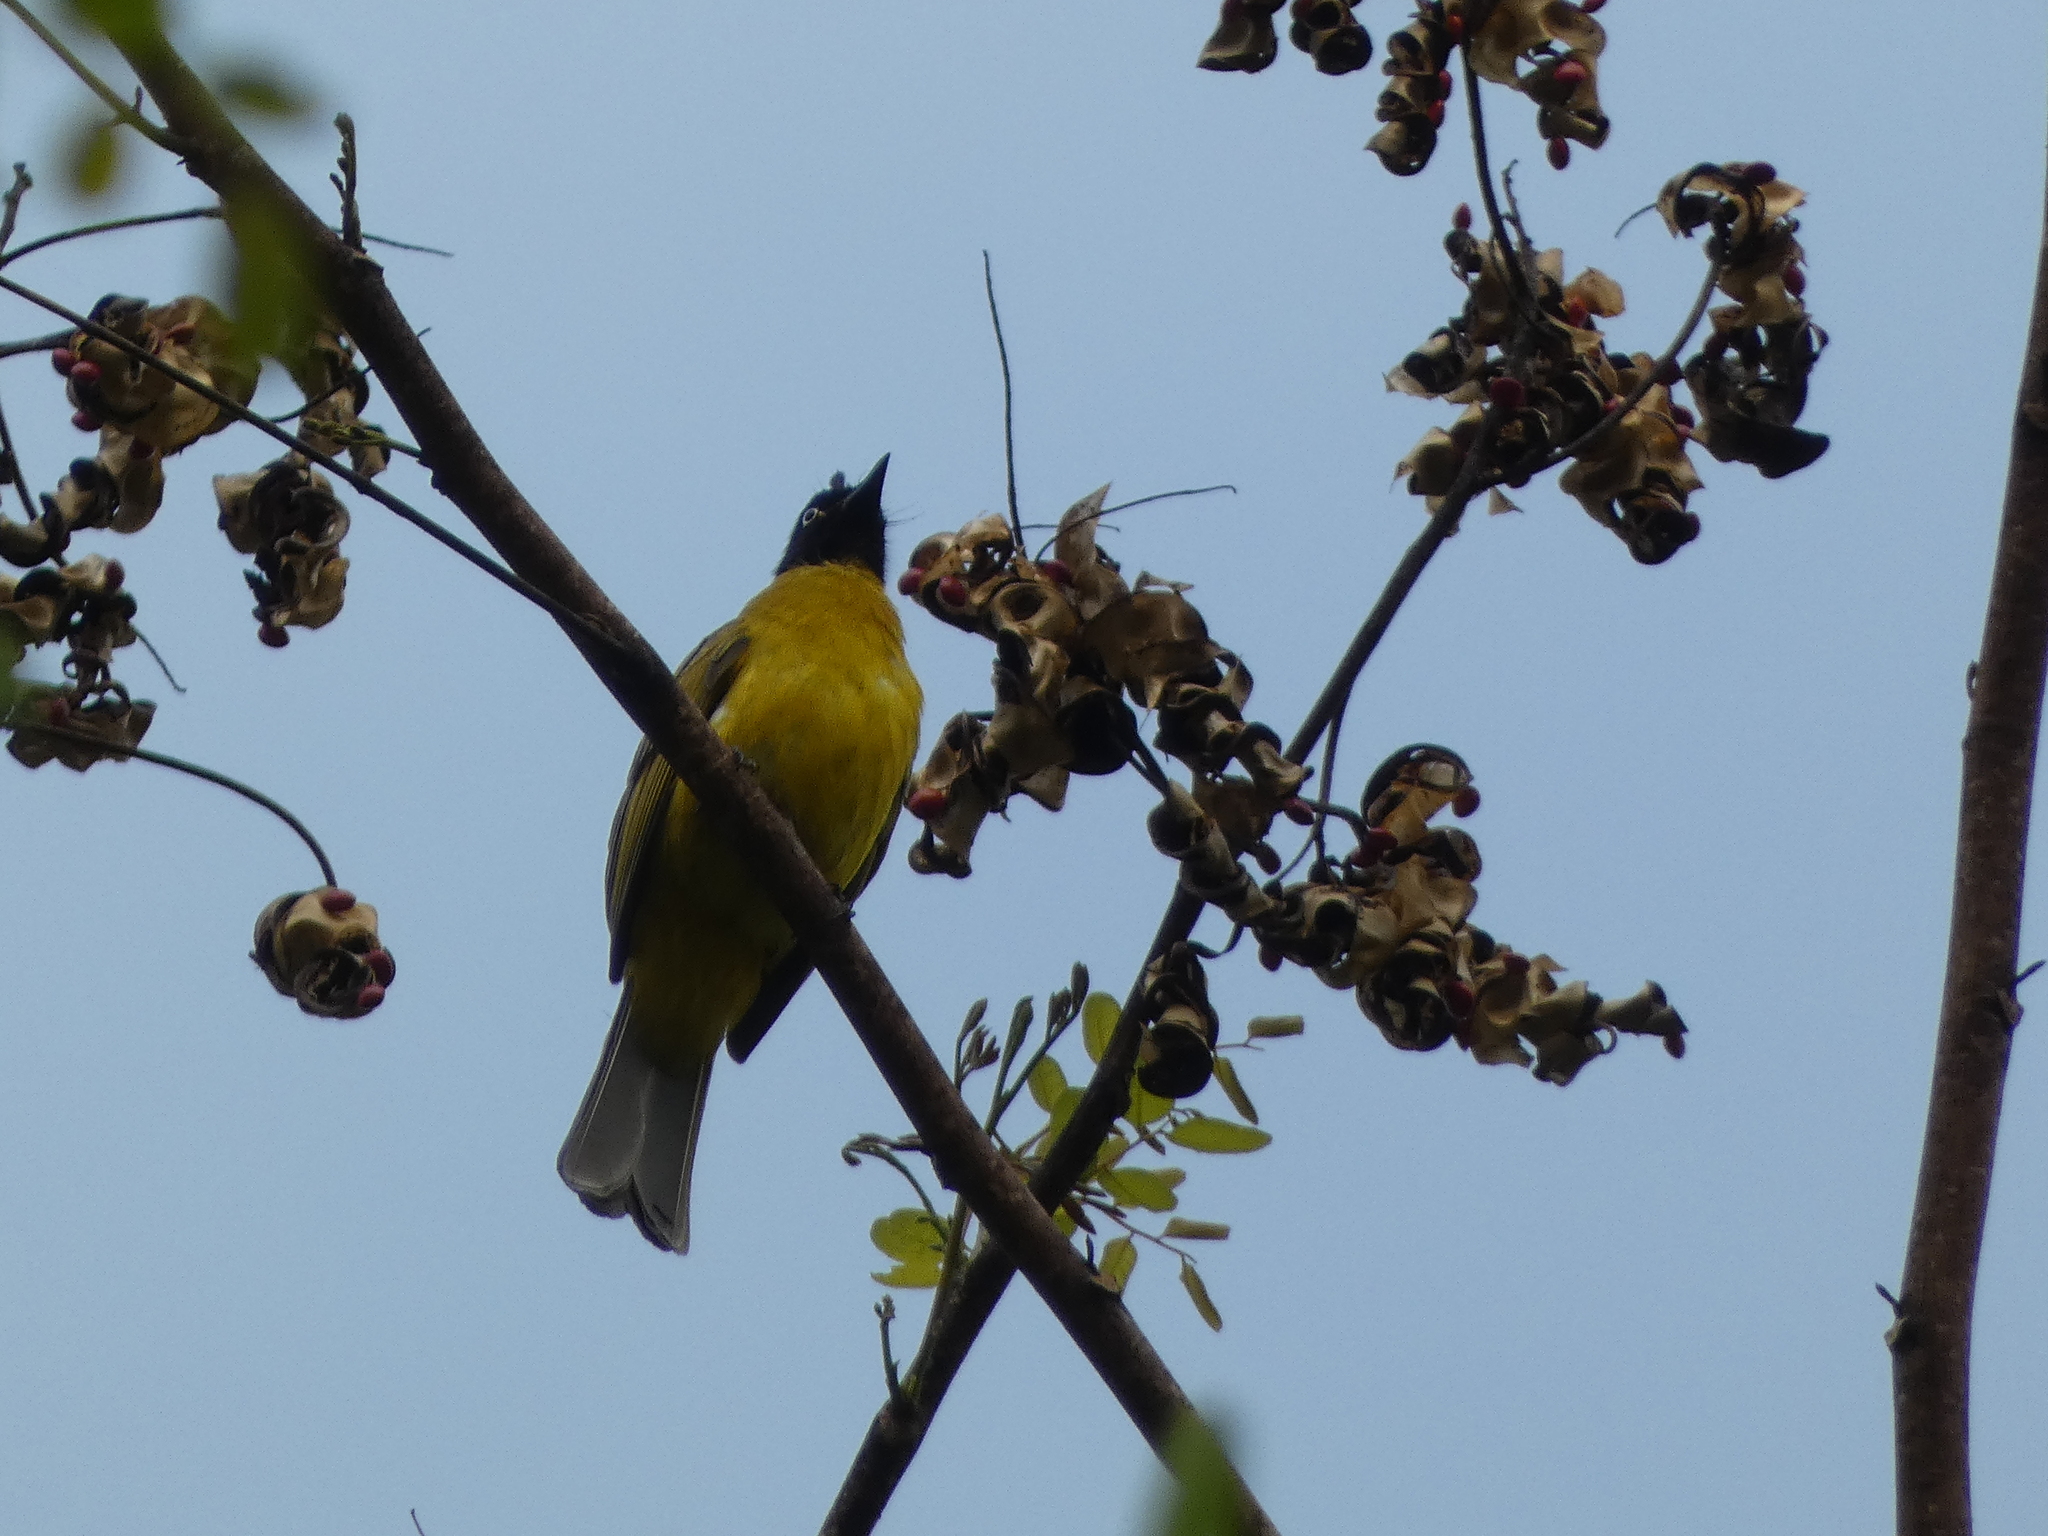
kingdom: Animalia
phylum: Chordata
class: Aves
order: Passeriformes
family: Pycnonotidae
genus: Pycnonotus
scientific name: Pycnonotus flaviventris
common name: Black-crested bulbul
